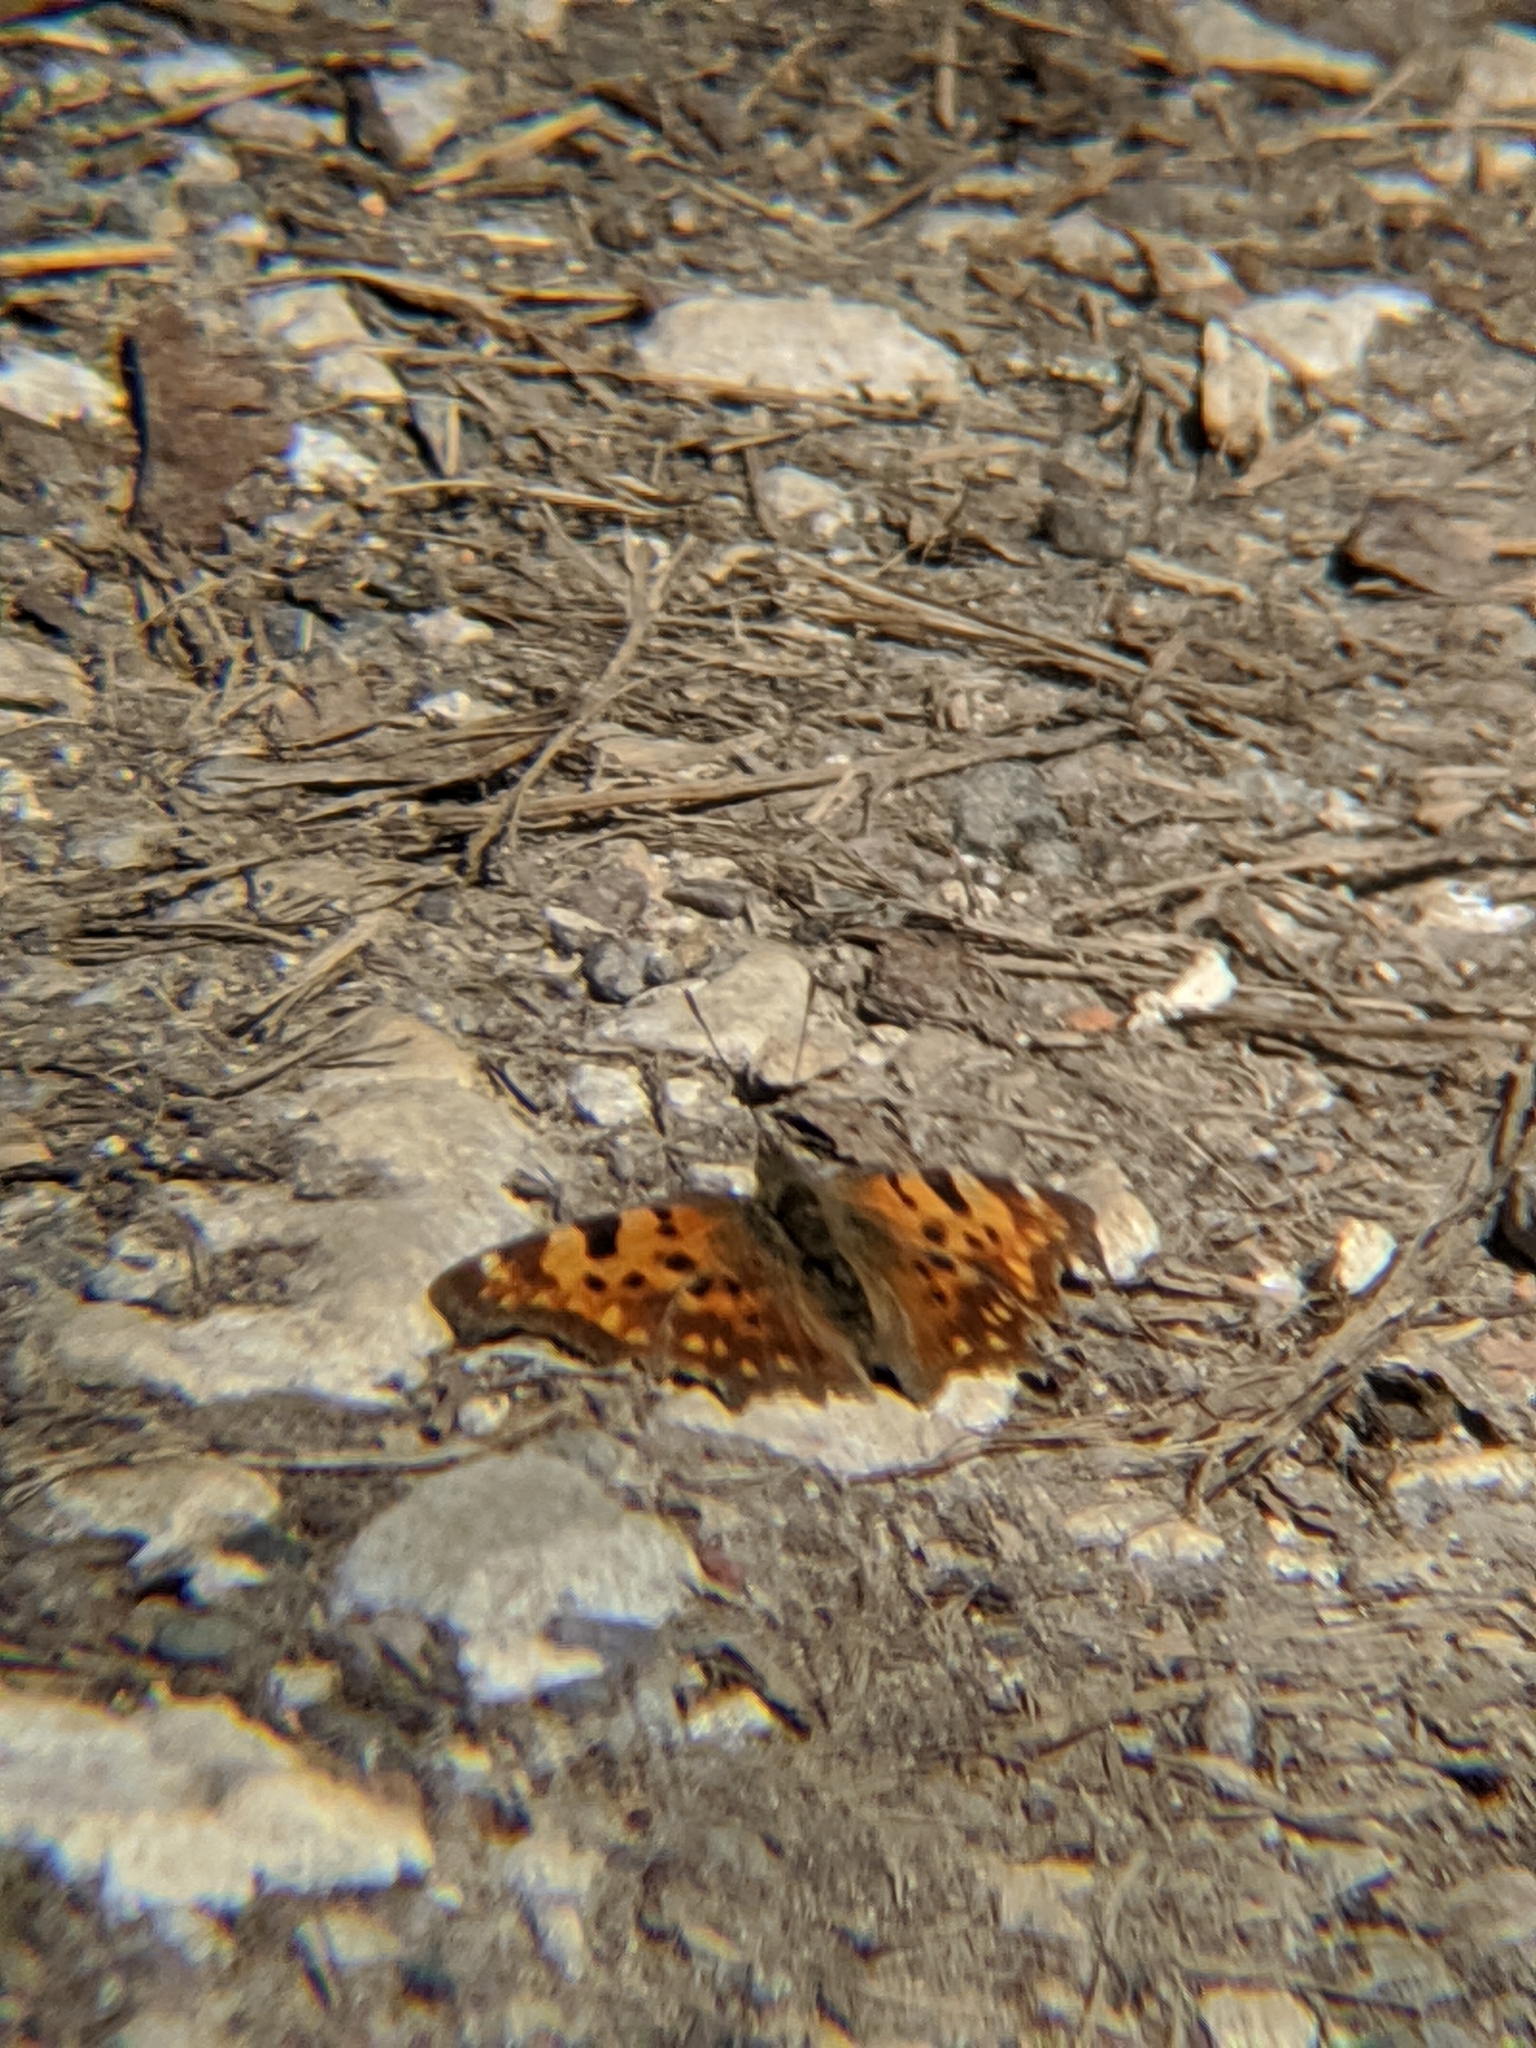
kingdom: Animalia
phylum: Arthropoda
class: Insecta
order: Lepidoptera
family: Nymphalidae
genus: Polygonia
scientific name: Polygonia c-album
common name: Comma
